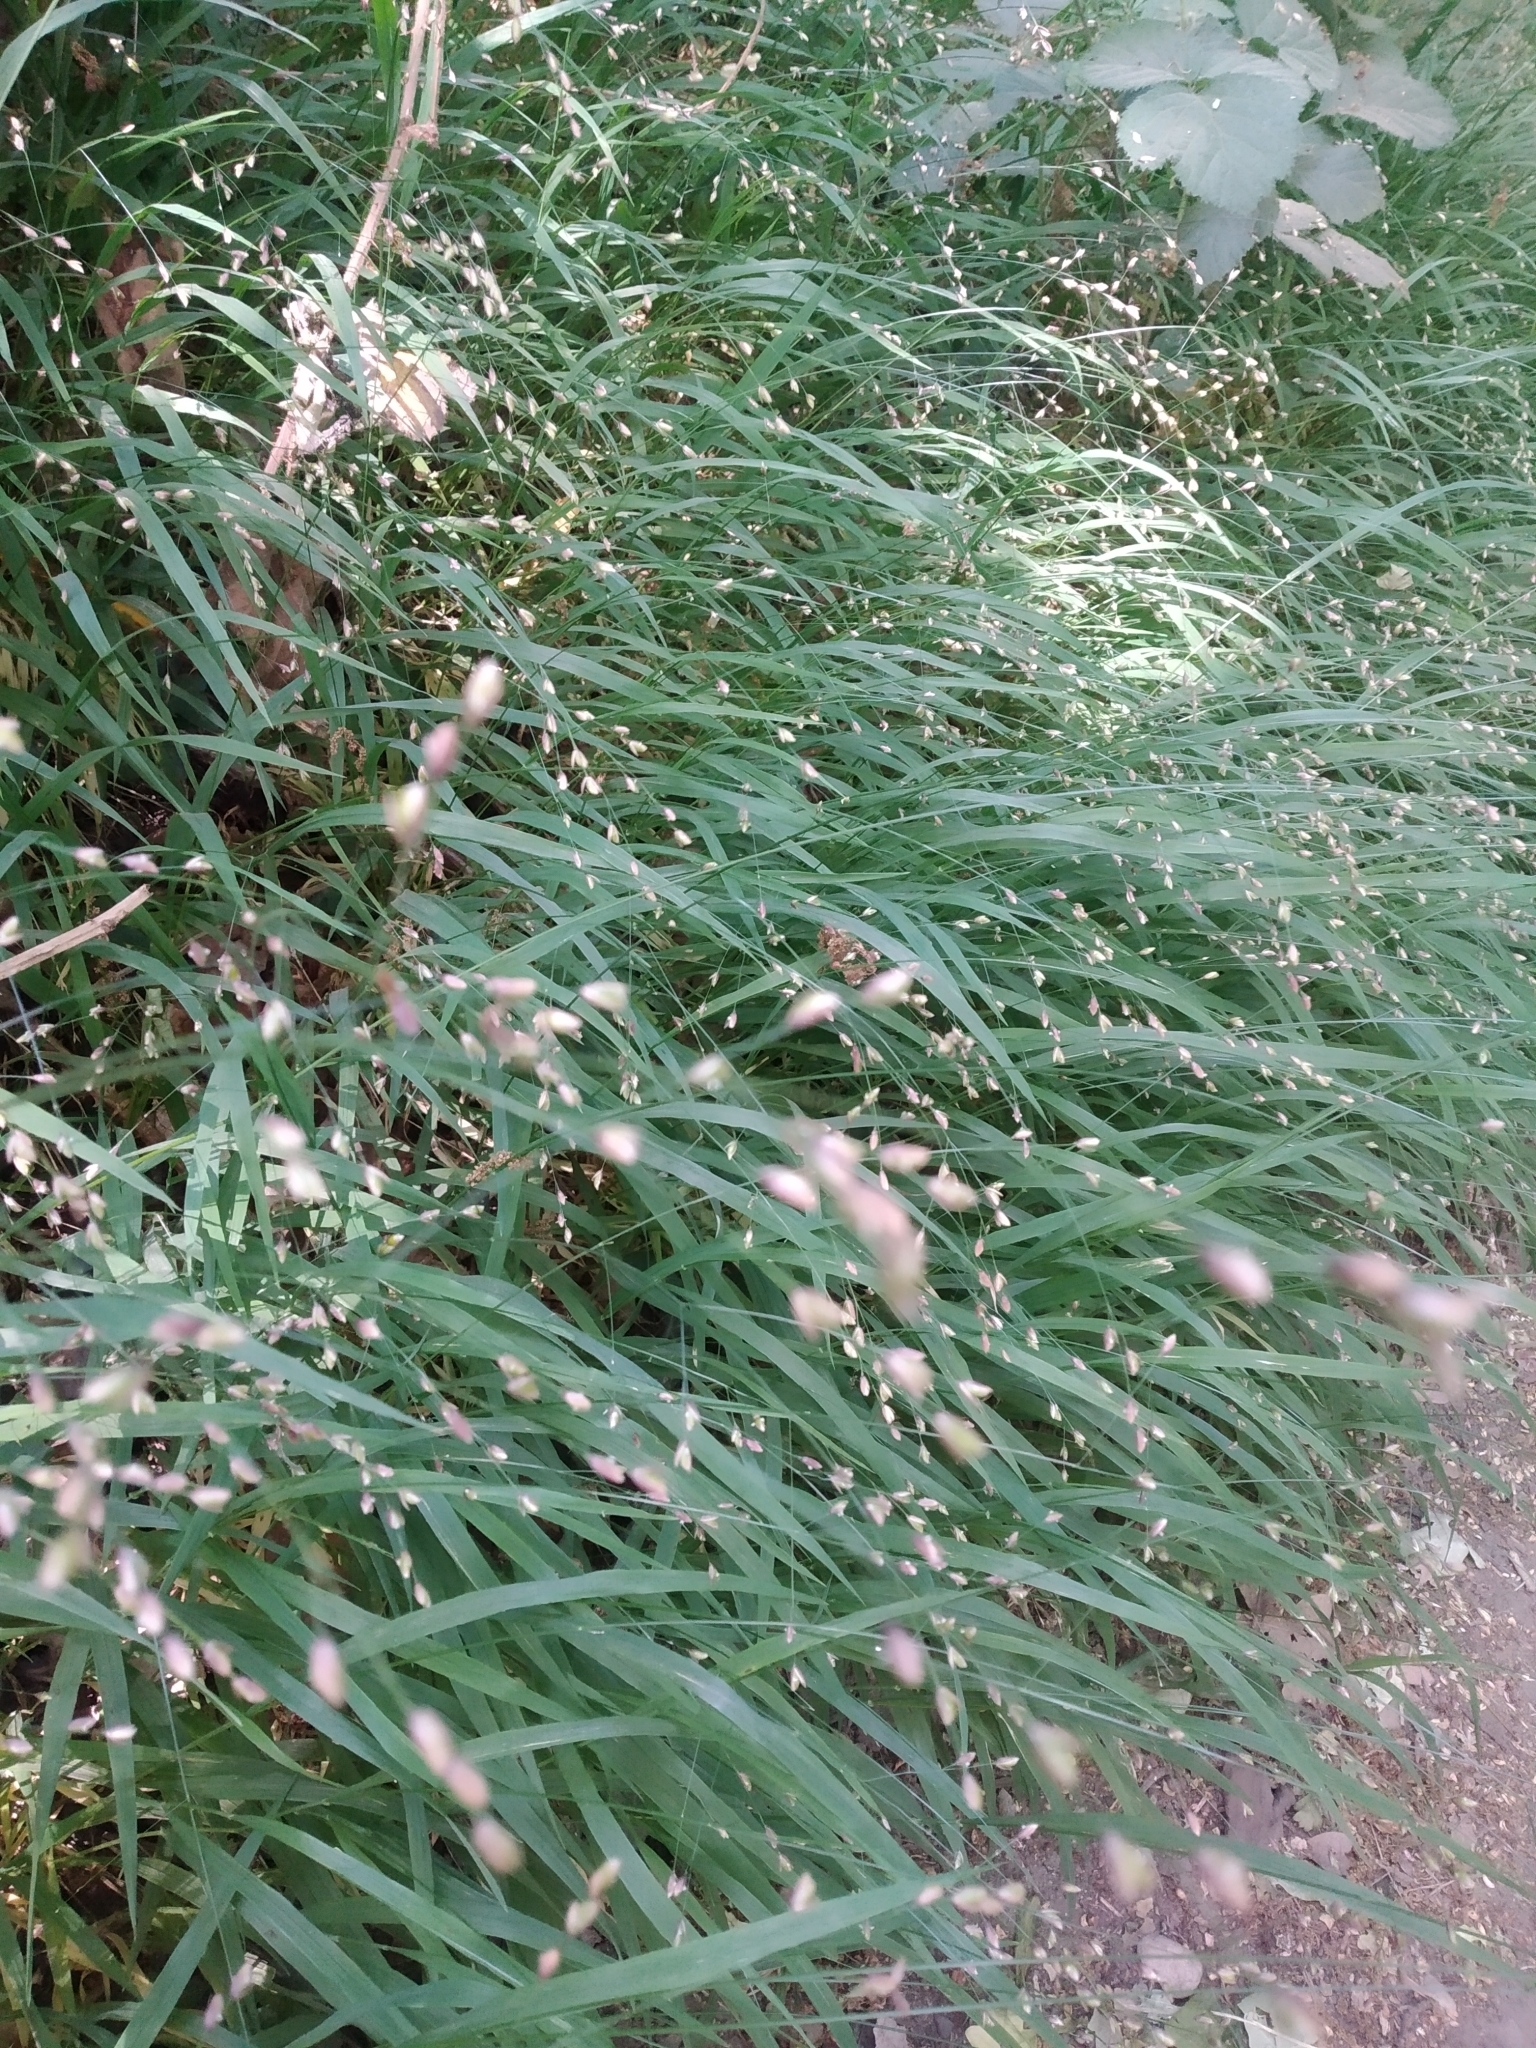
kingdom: Plantae
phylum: Tracheophyta
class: Liliopsida
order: Poales
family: Poaceae
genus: Melica
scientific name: Melica uniflora
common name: Wood melick
